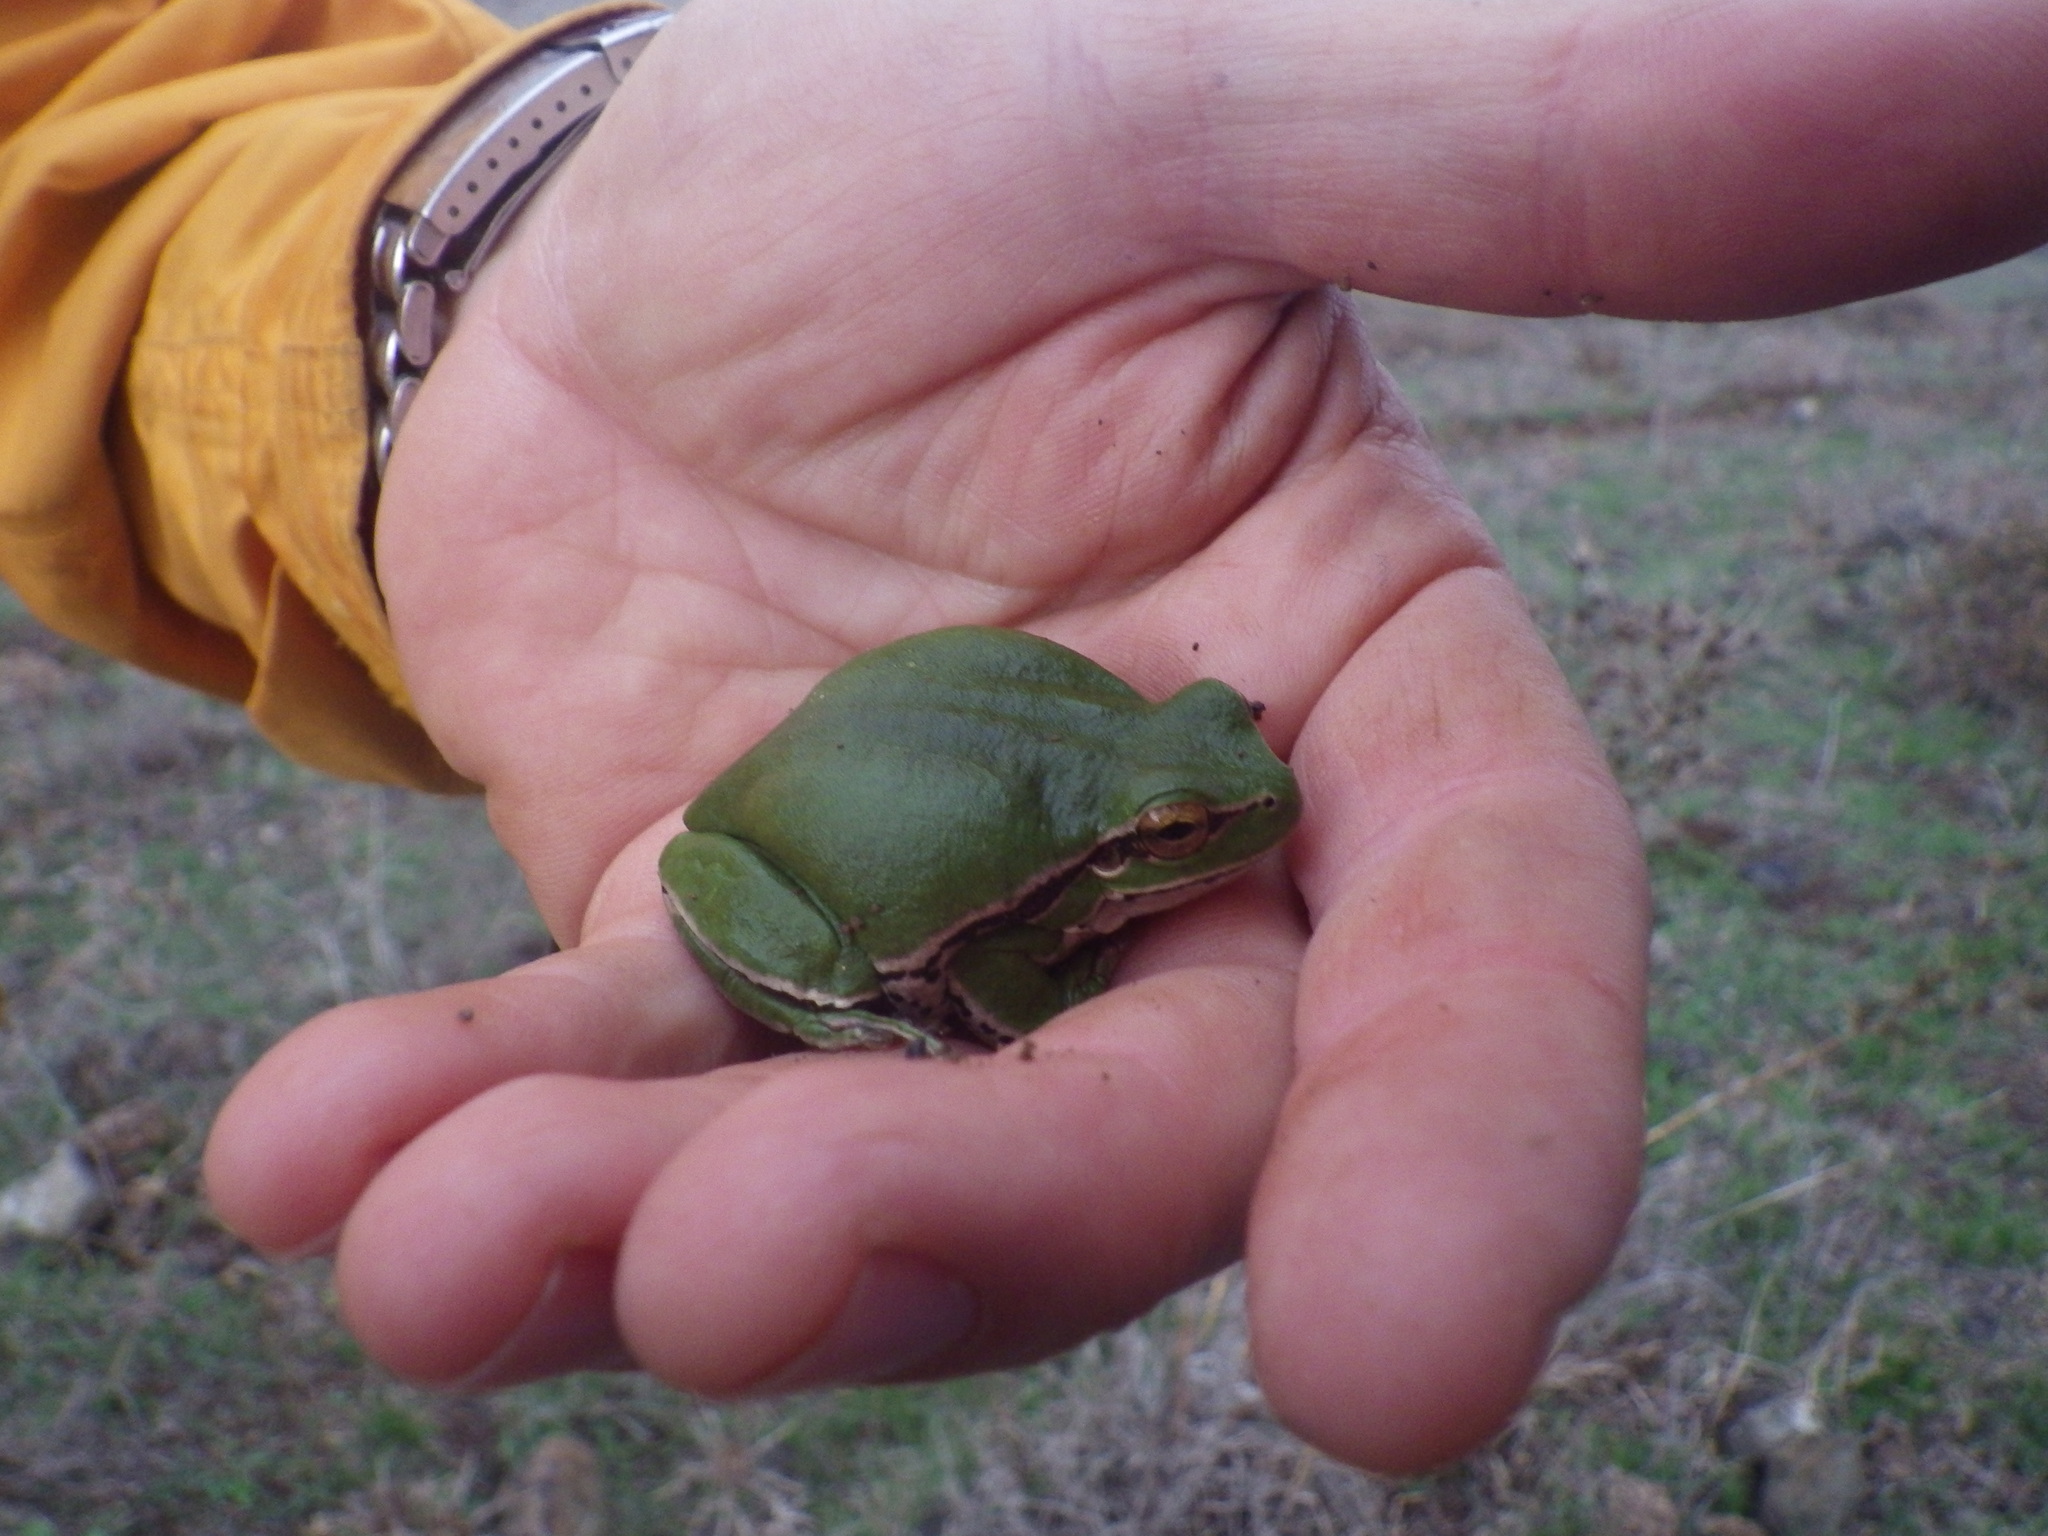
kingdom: Animalia
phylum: Chordata
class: Amphibia
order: Anura
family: Hylidae
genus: Hyla
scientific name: Hyla savignyi
